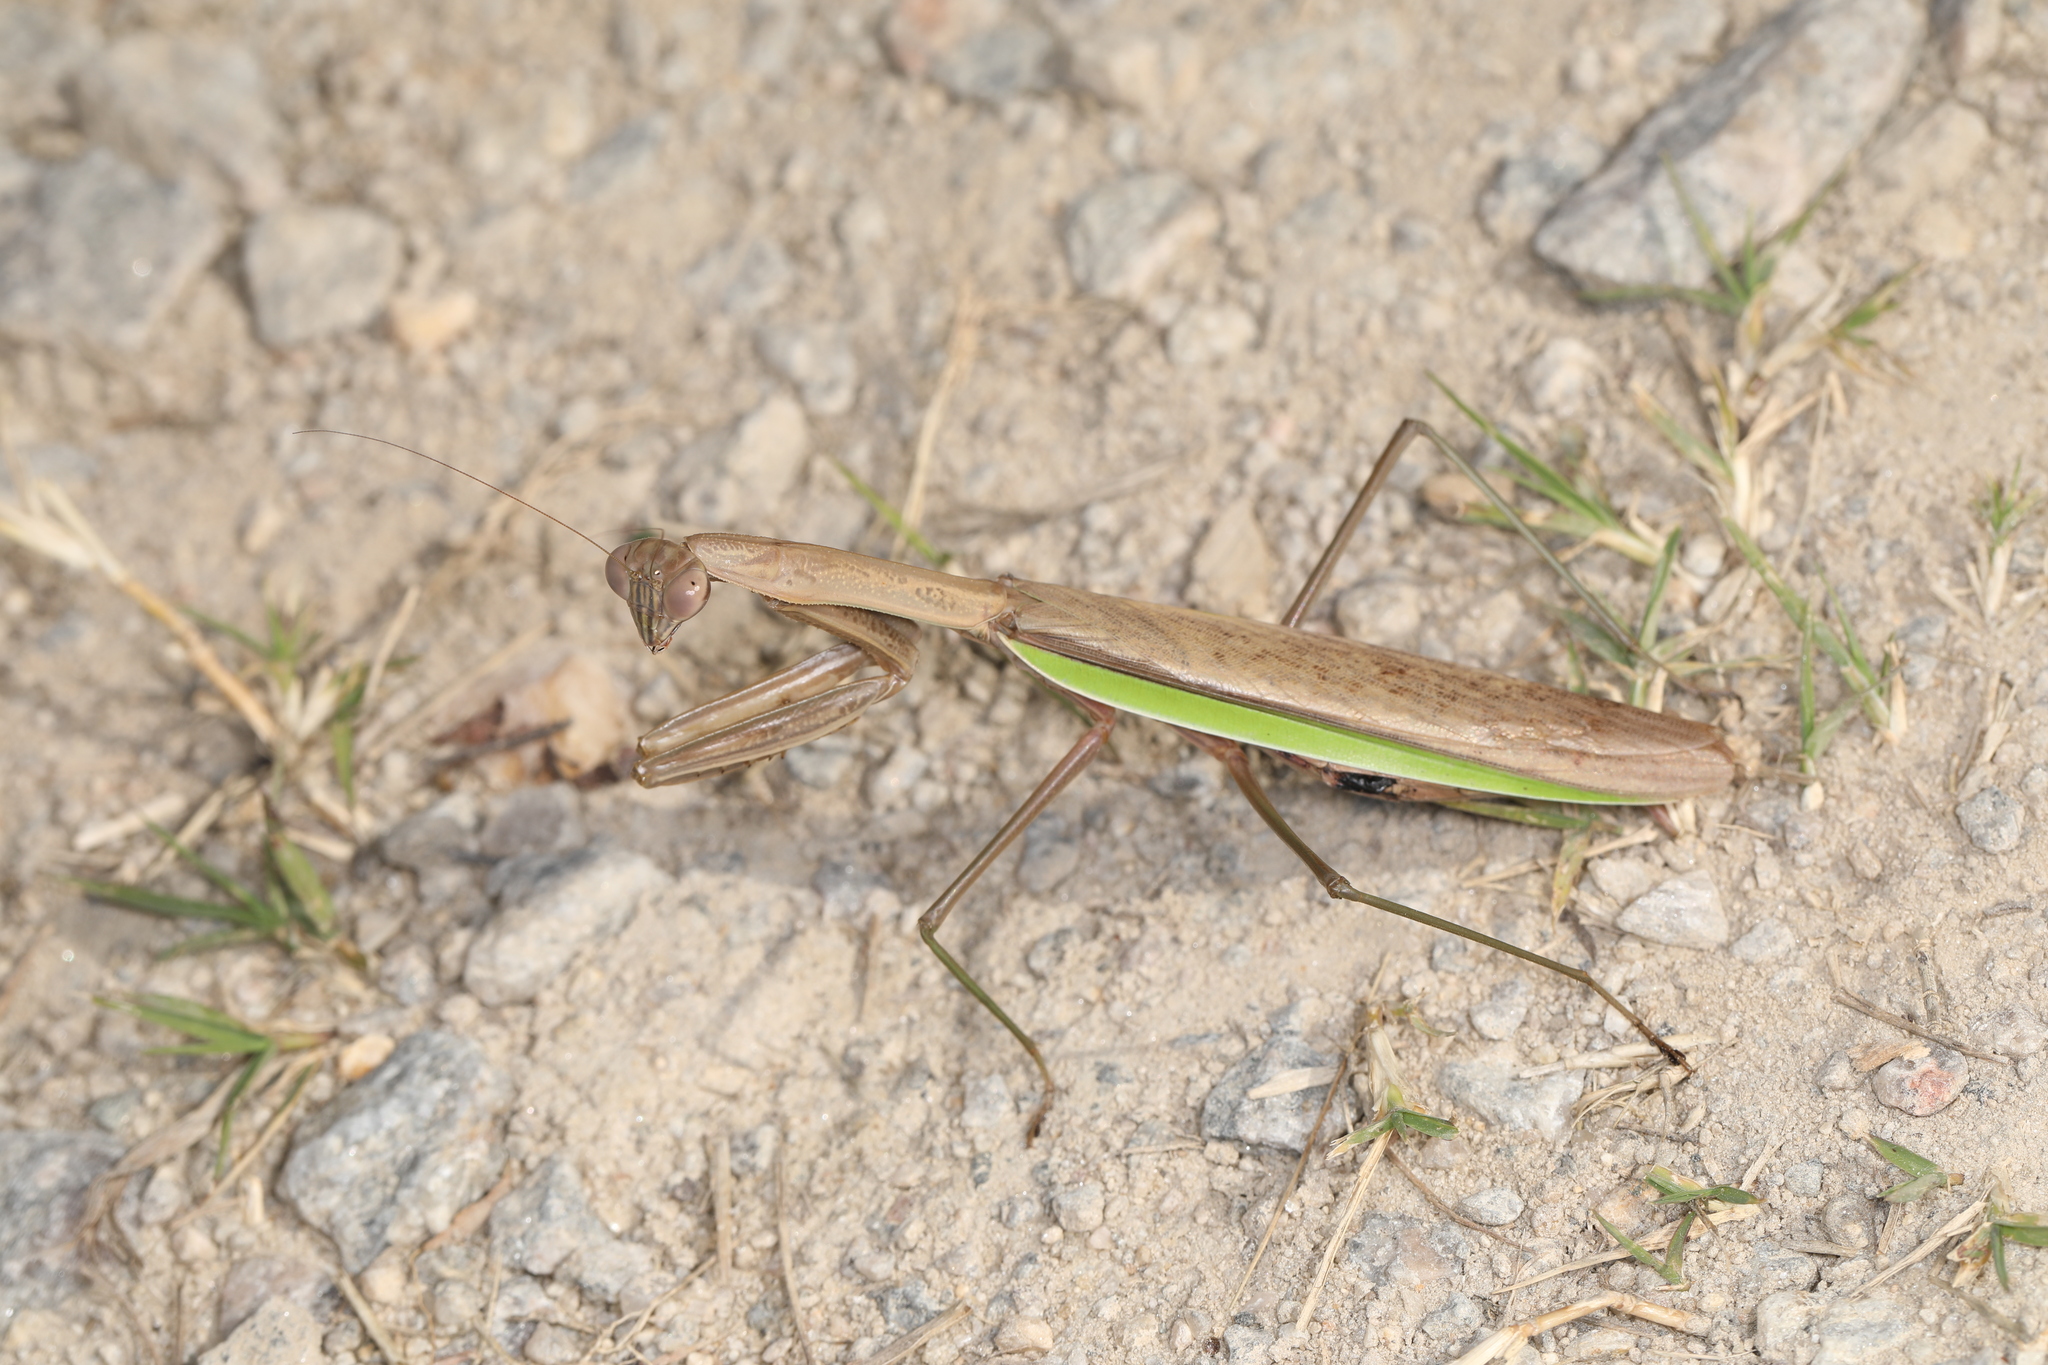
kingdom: Animalia
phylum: Arthropoda
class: Insecta
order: Mantodea
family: Mantidae
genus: Tenodera
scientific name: Tenodera sinensis
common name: Chinese mantis
